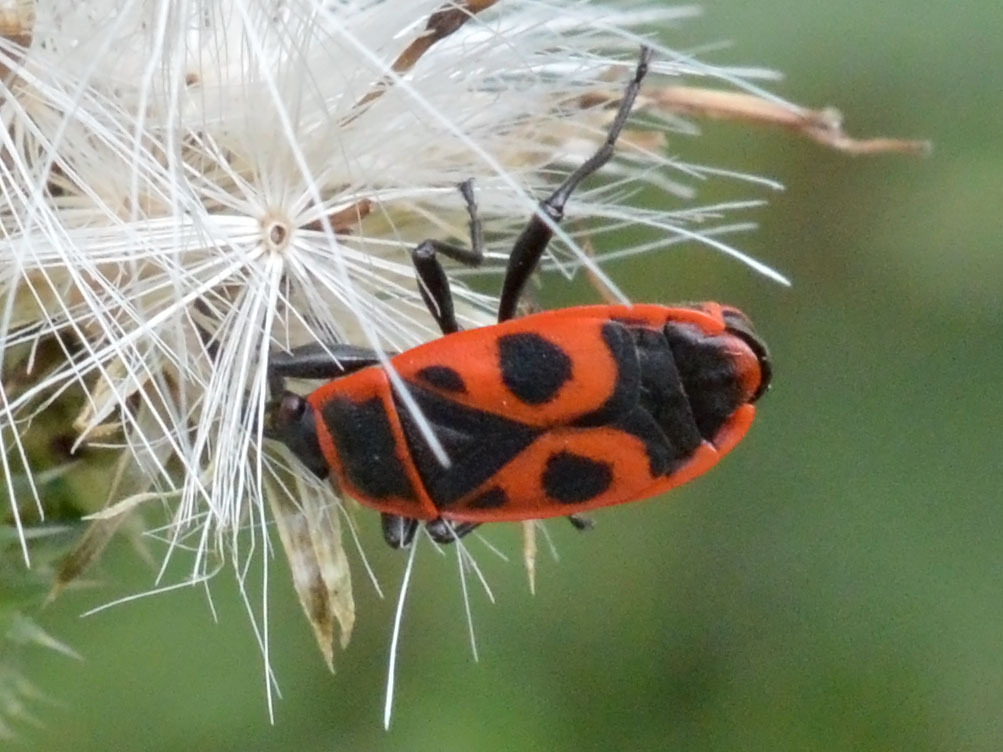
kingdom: Animalia
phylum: Arthropoda
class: Insecta
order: Hemiptera
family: Pyrrhocoridae
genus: Pyrrhocoris
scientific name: Pyrrhocoris apterus
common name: Firebug
